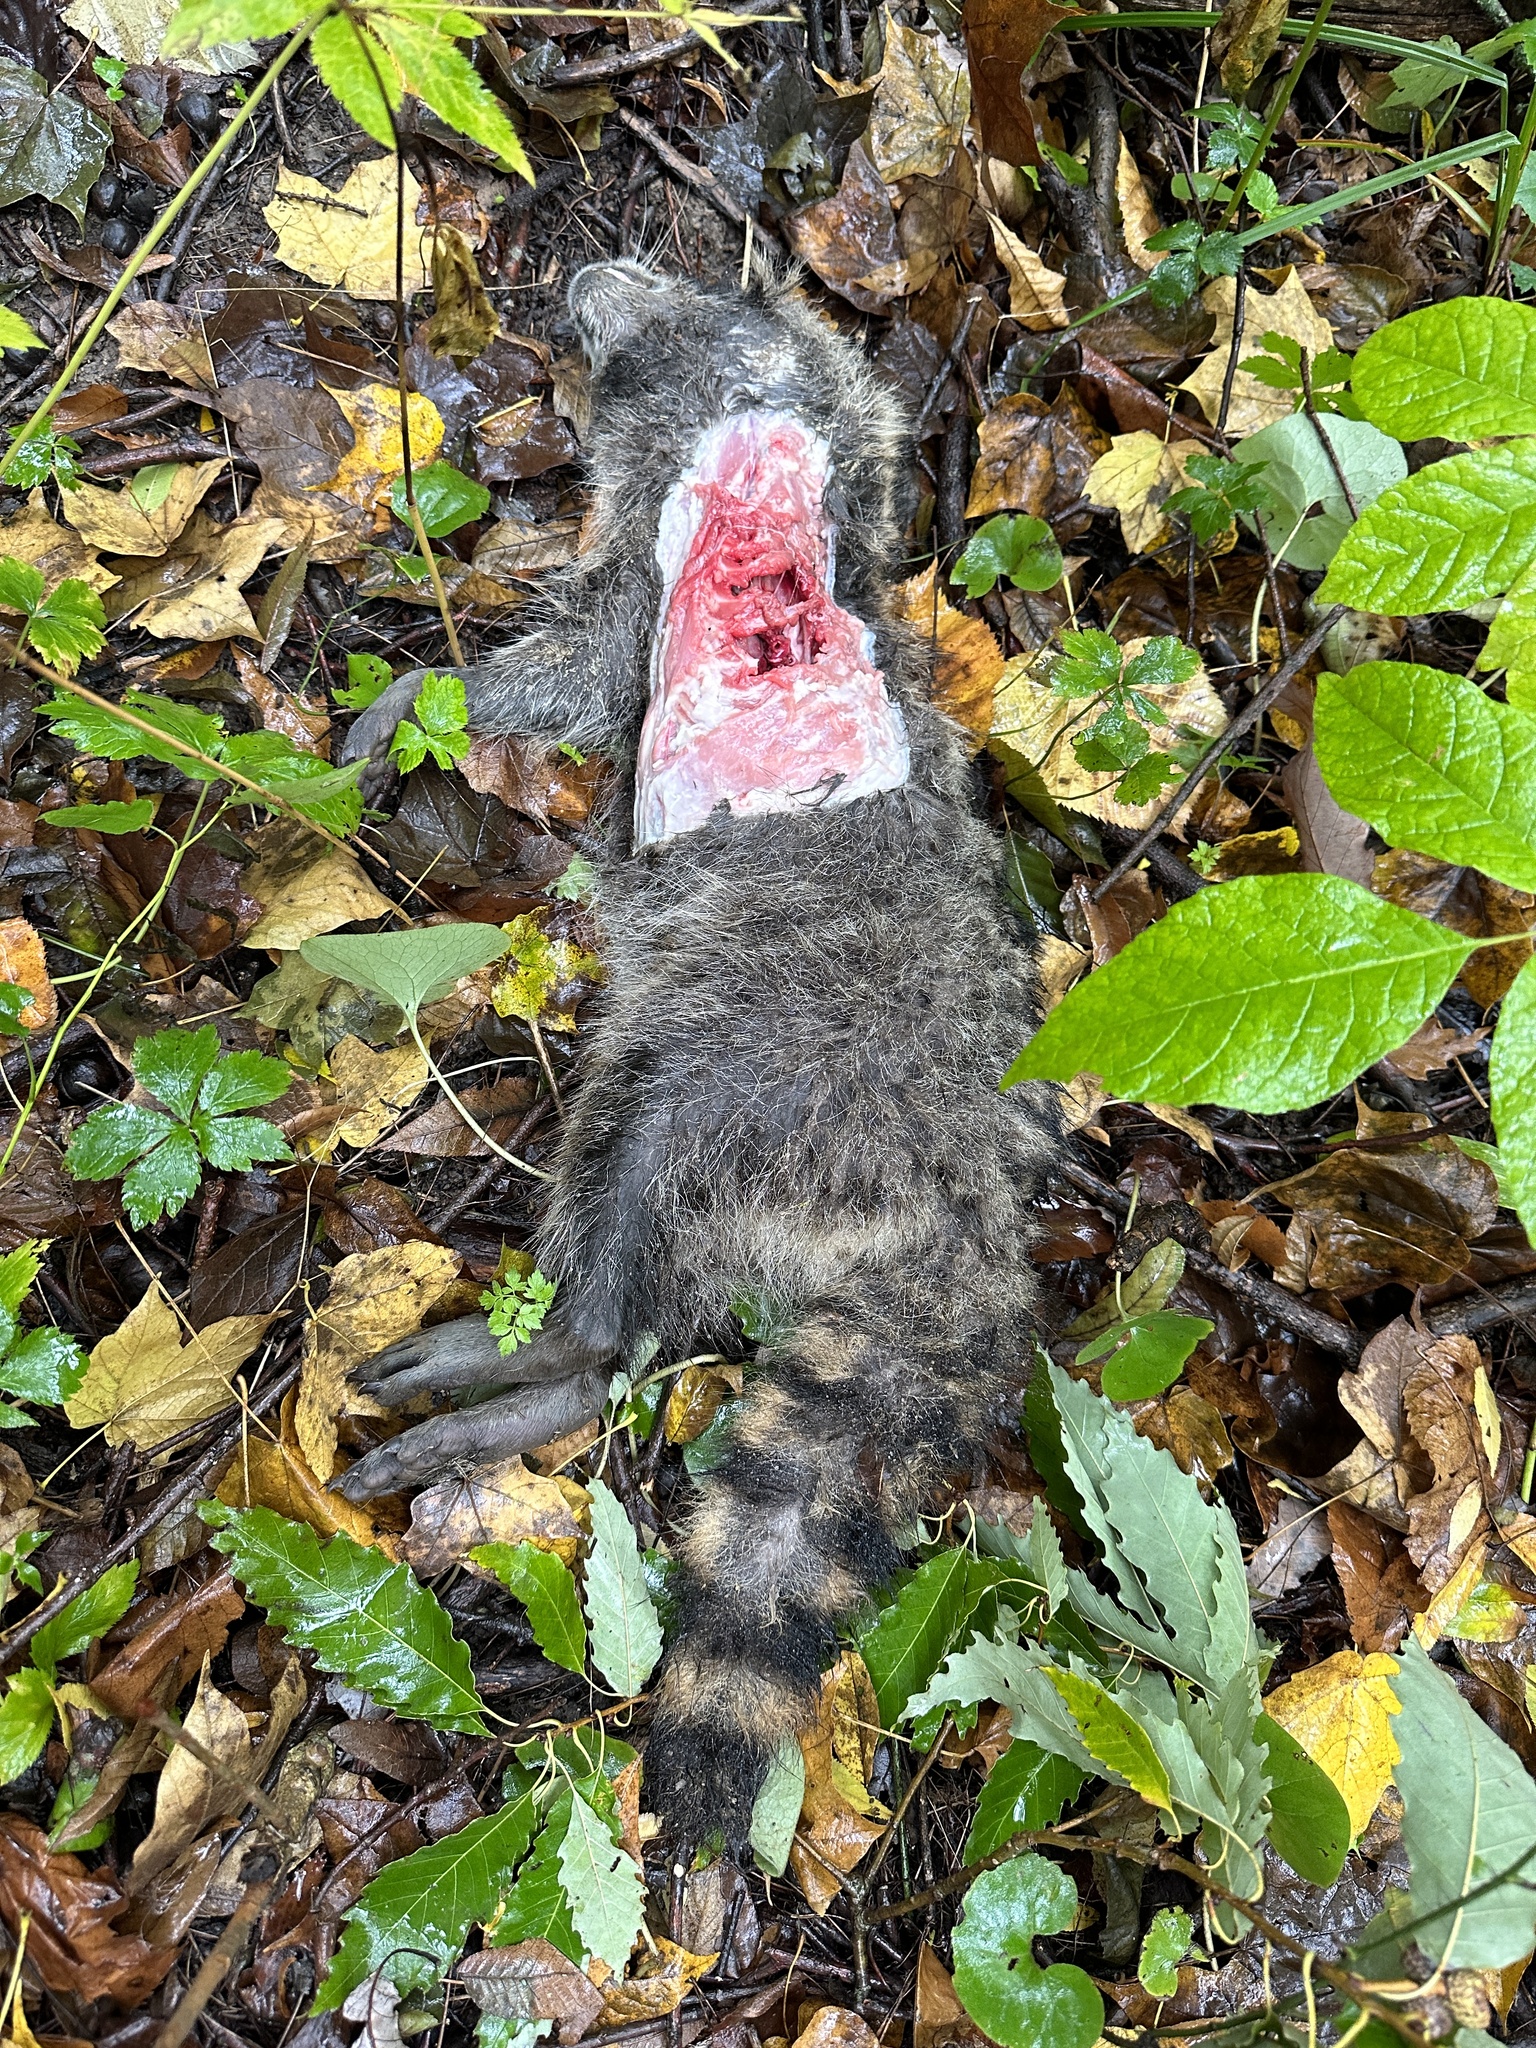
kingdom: Animalia
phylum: Chordata
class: Mammalia
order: Carnivora
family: Procyonidae
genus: Procyon
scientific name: Procyon lotor
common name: Raccoon
